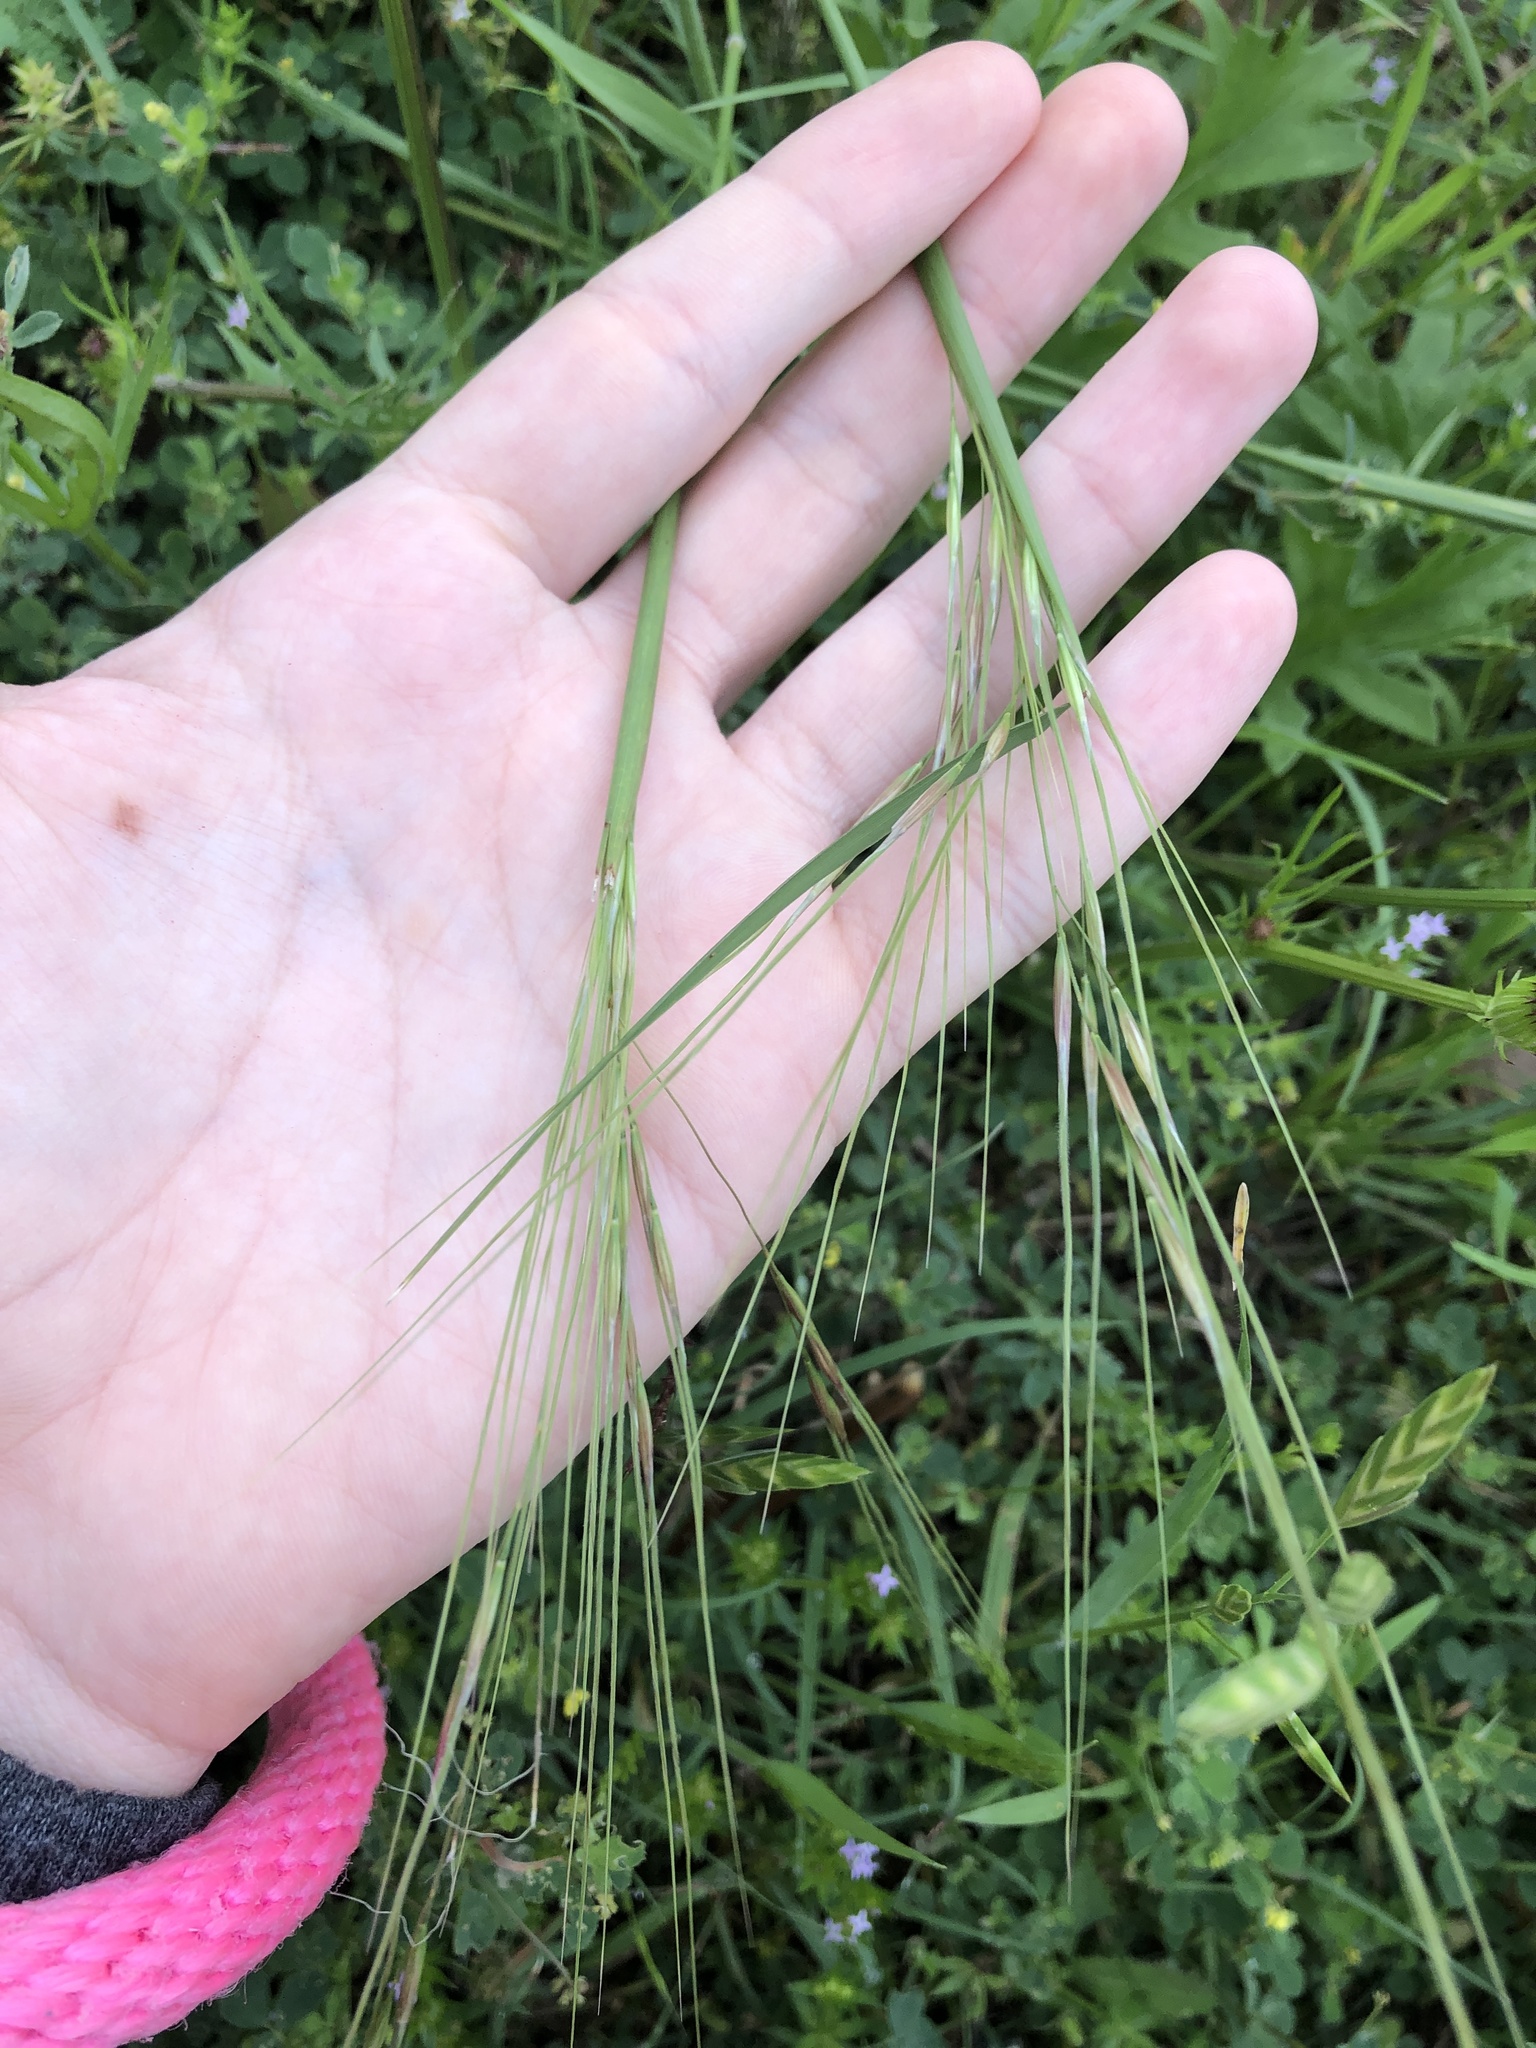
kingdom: Plantae
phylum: Tracheophyta
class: Liliopsida
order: Poales
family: Poaceae
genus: Nassella
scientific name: Nassella leucotricha
